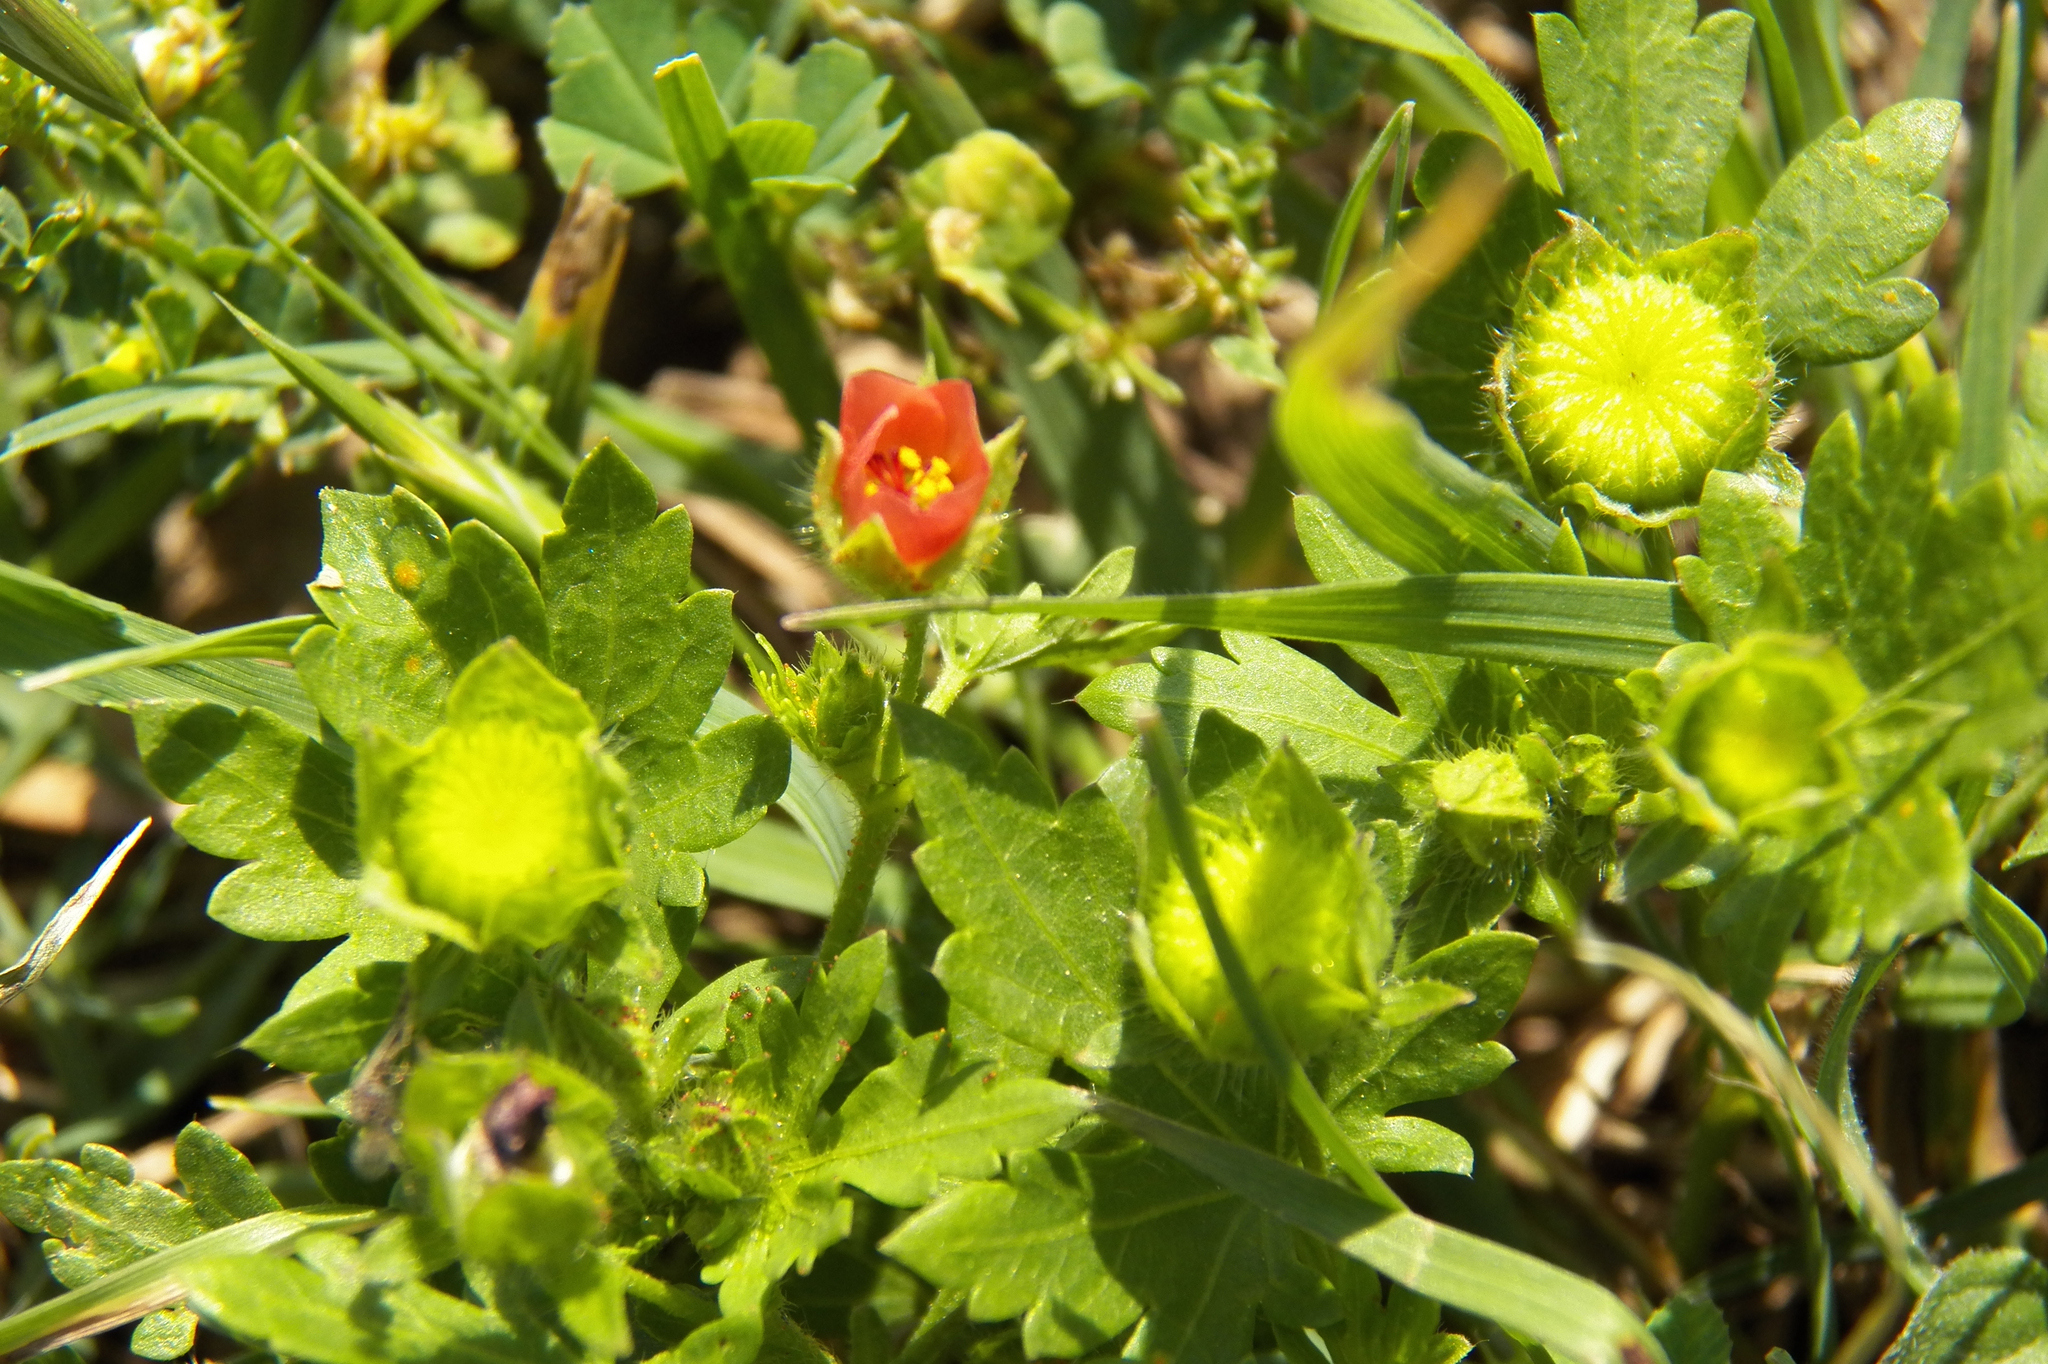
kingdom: Plantae
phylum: Tracheophyta
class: Magnoliopsida
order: Malvales
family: Malvaceae
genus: Modiola
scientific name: Modiola caroliniana
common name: Carolina bristlemallow
